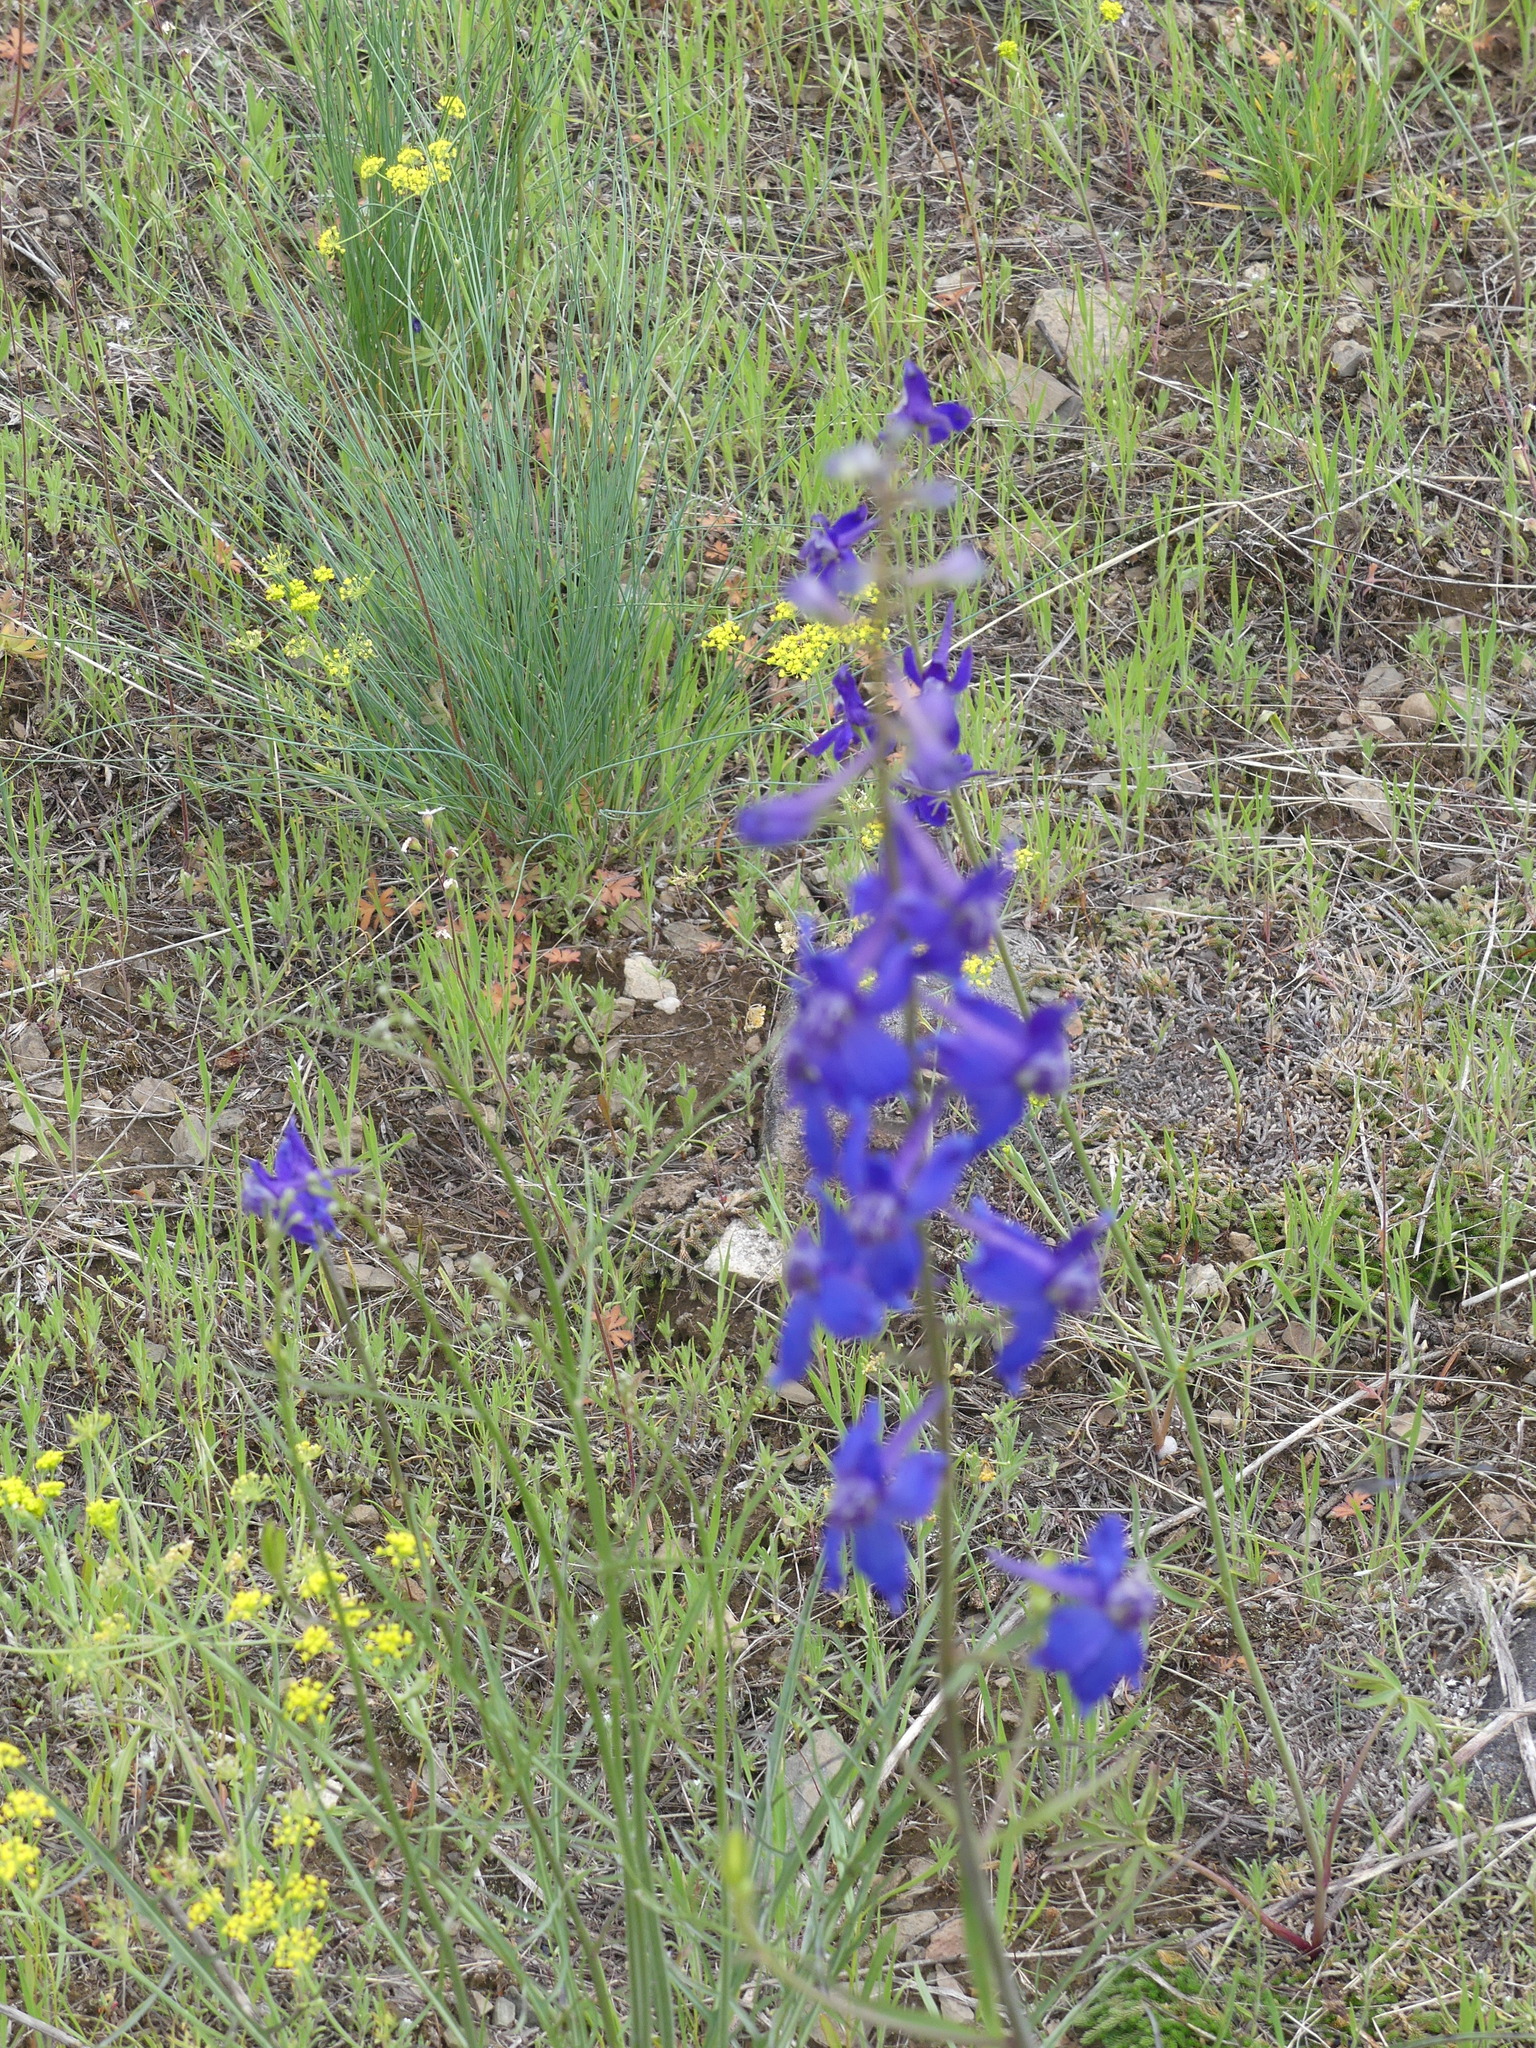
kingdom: Plantae
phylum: Tracheophyta
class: Magnoliopsida
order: Ranunculales
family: Ranunculaceae
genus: Delphinium
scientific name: Delphinium nuttallianum
